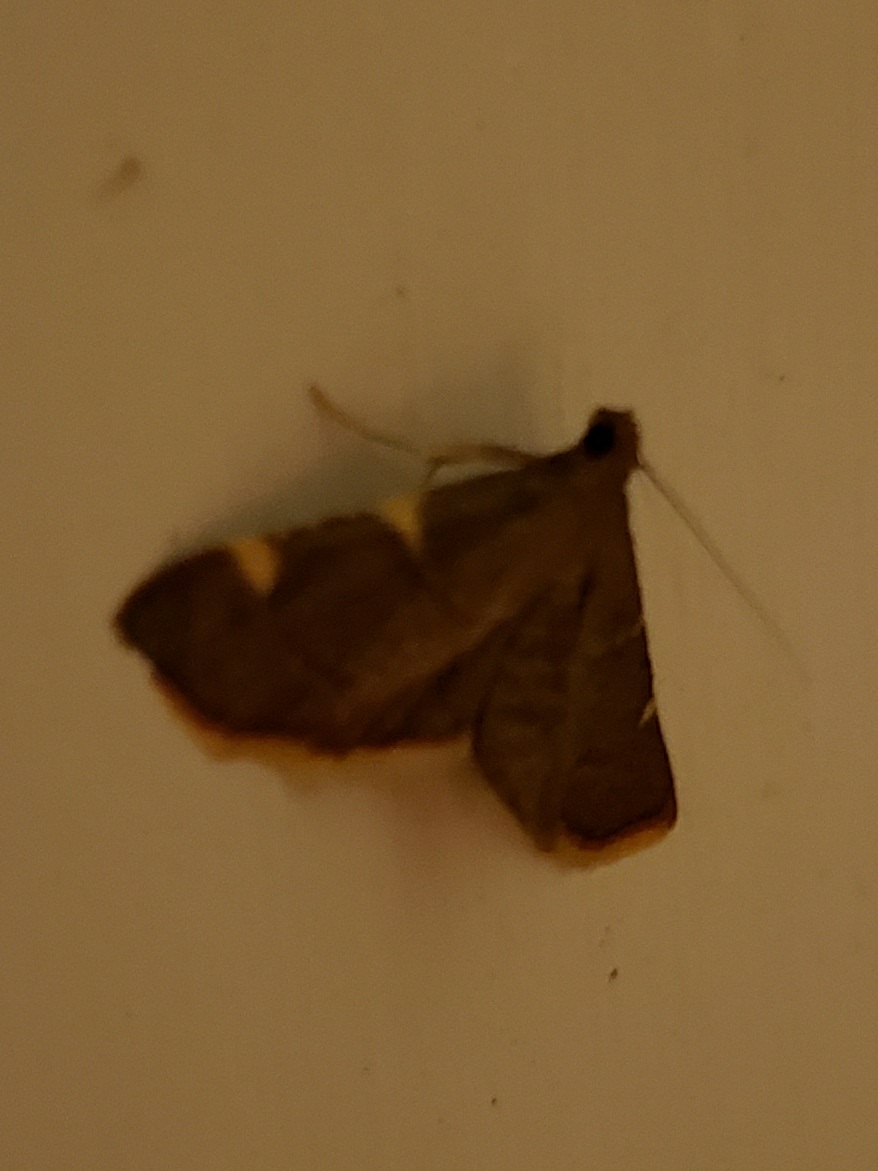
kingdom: Animalia
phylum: Arthropoda
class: Insecta
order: Lepidoptera
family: Pyralidae
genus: Hypsopygia
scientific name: Hypsopygia olinalis
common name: Yellow-fringed dolichomia moth
